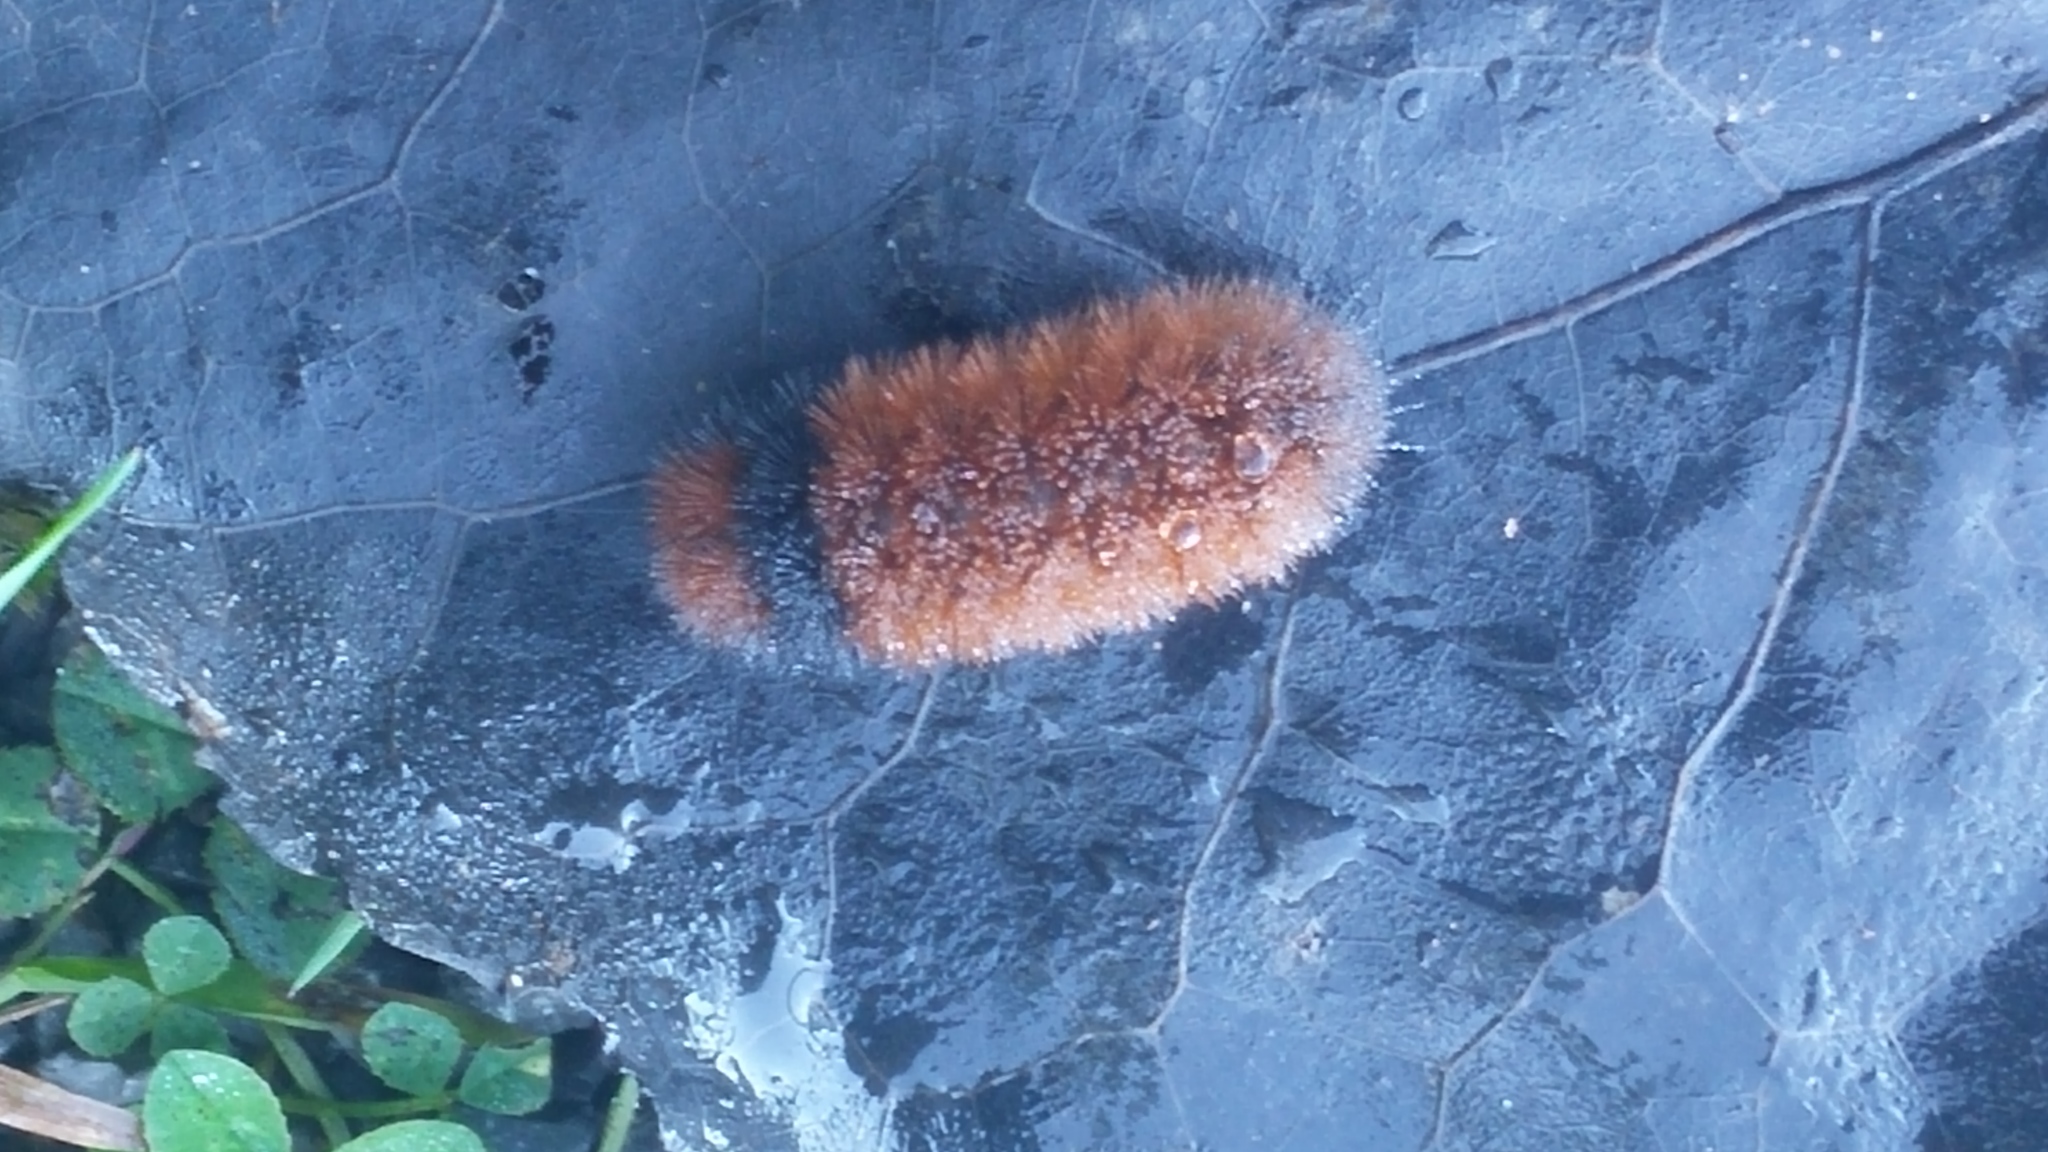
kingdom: Animalia
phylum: Arthropoda
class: Insecta
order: Lepidoptera
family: Erebidae
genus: Pyrrharctia
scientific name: Pyrrharctia isabella
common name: Isabella tiger moth
